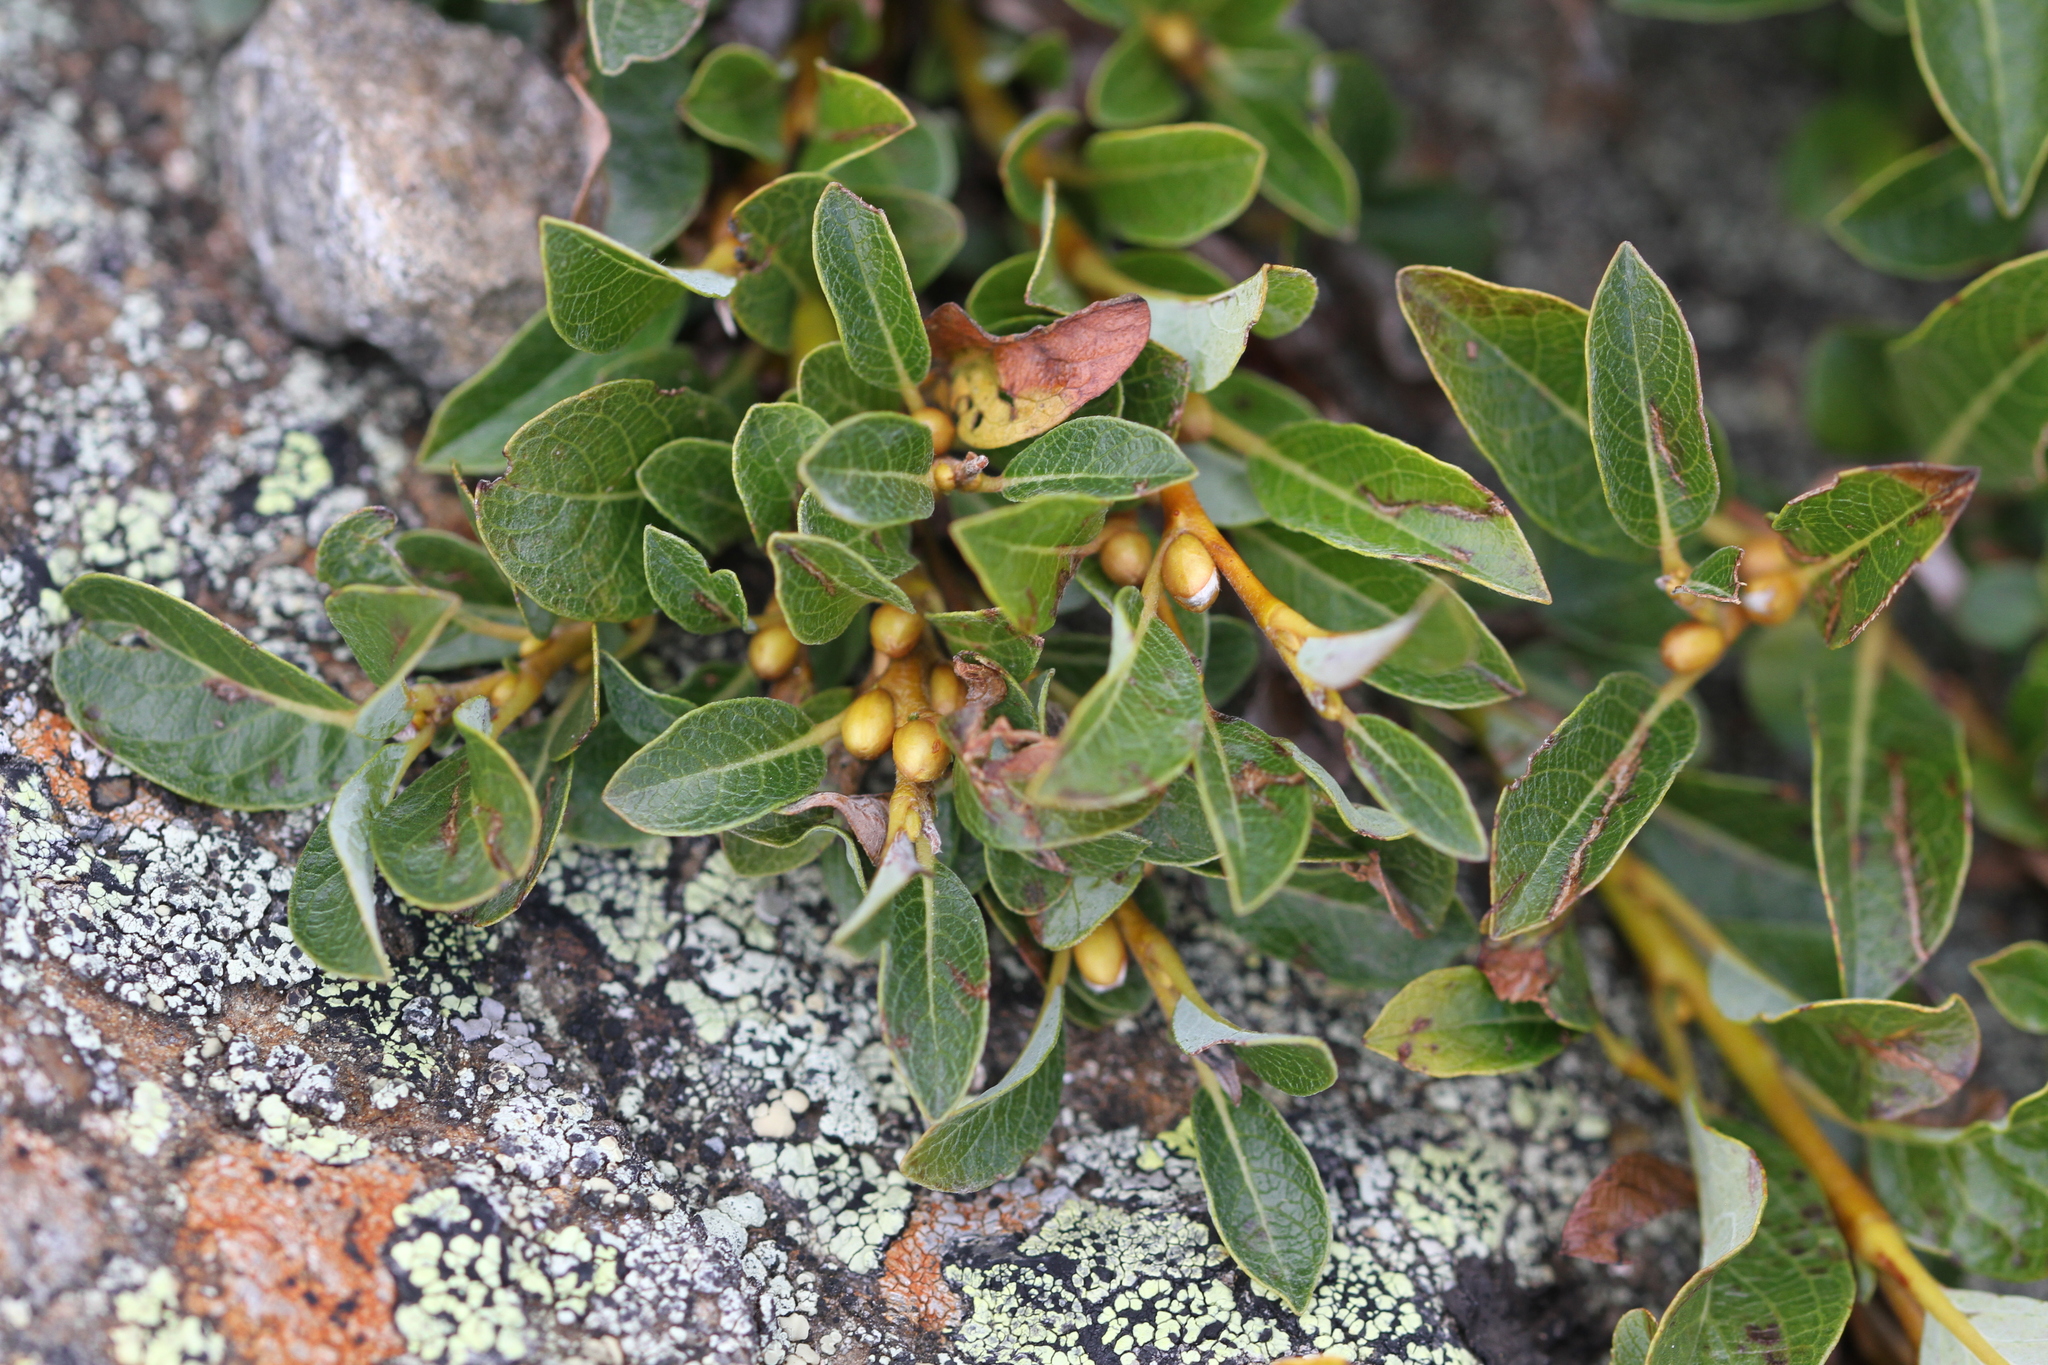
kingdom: Plantae
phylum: Tracheophyta
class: Magnoliopsida
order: Malpighiales
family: Salicaceae
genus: Salix
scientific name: Salix uva-ursi
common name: Bearberry willow
